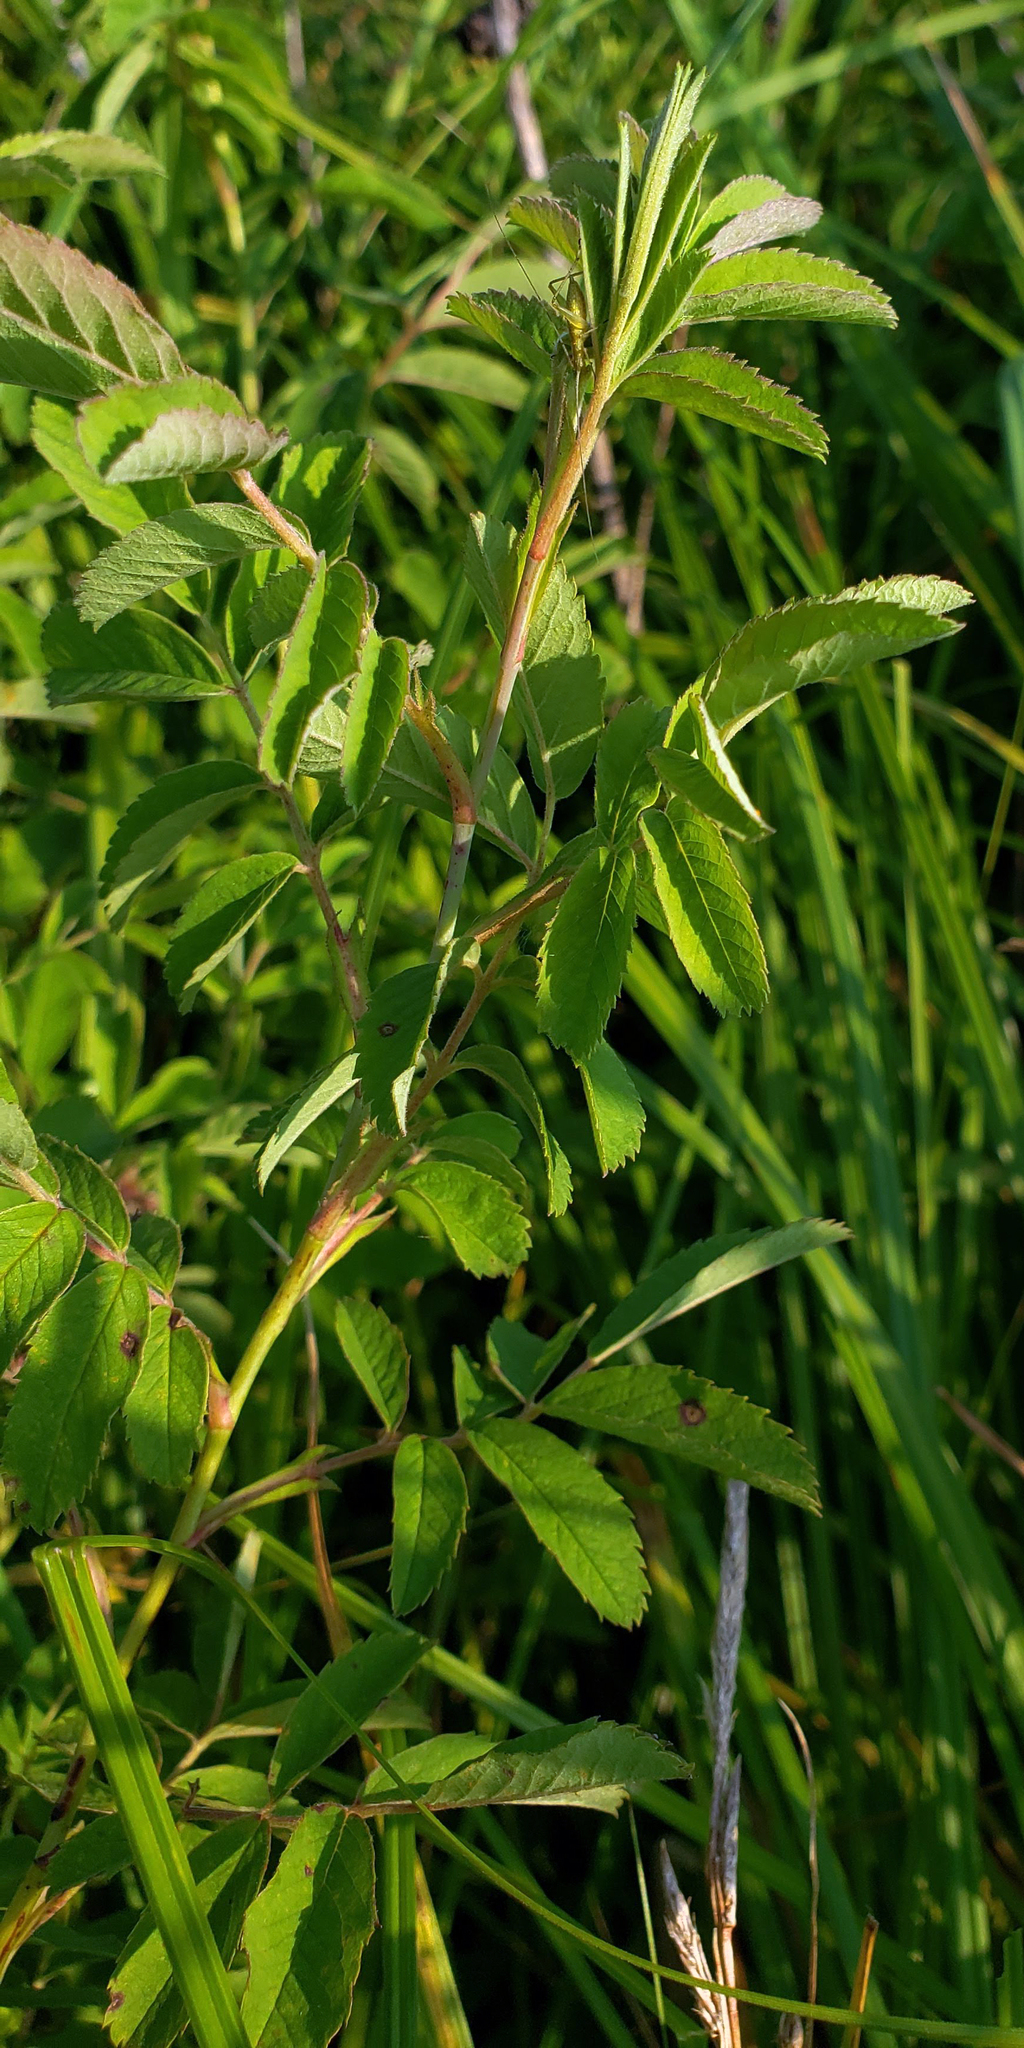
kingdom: Plantae
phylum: Tracheophyta
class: Magnoliopsida
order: Rosales
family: Rosaceae
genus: Rosa
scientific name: Rosa blanda
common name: Smooth rose
